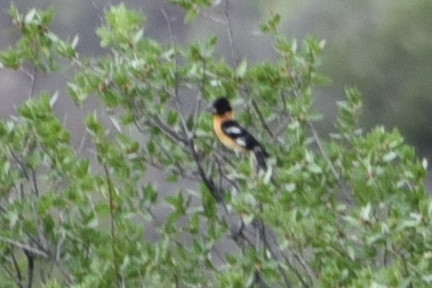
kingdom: Animalia
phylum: Chordata
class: Aves
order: Passeriformes
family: Cardinalidae
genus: Pheucticus
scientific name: Pheucticus melanocephalus
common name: Black-headed grosbeak
